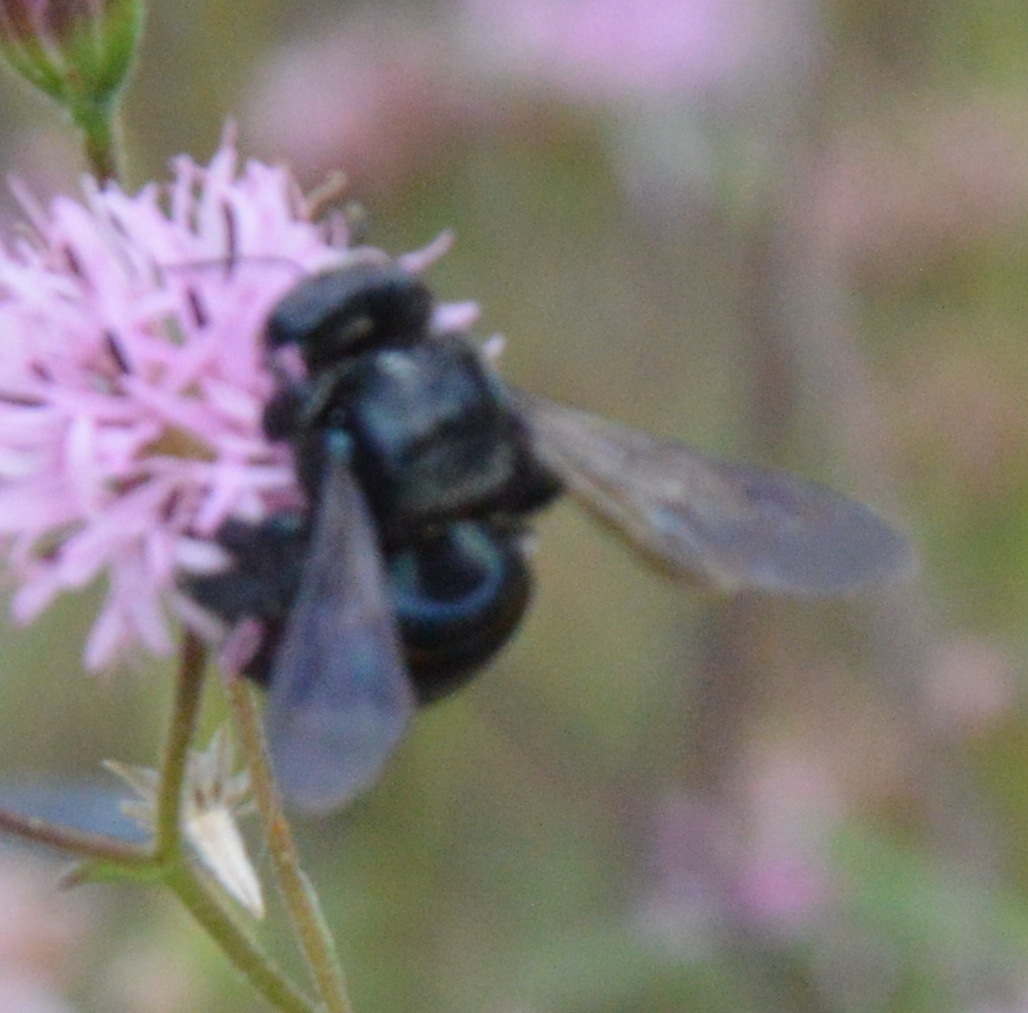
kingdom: Animalia
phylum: Arthropoda
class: Insecta
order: Hymenoptera
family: Apidae
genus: Xylocopa
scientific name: Xylocopa micans
